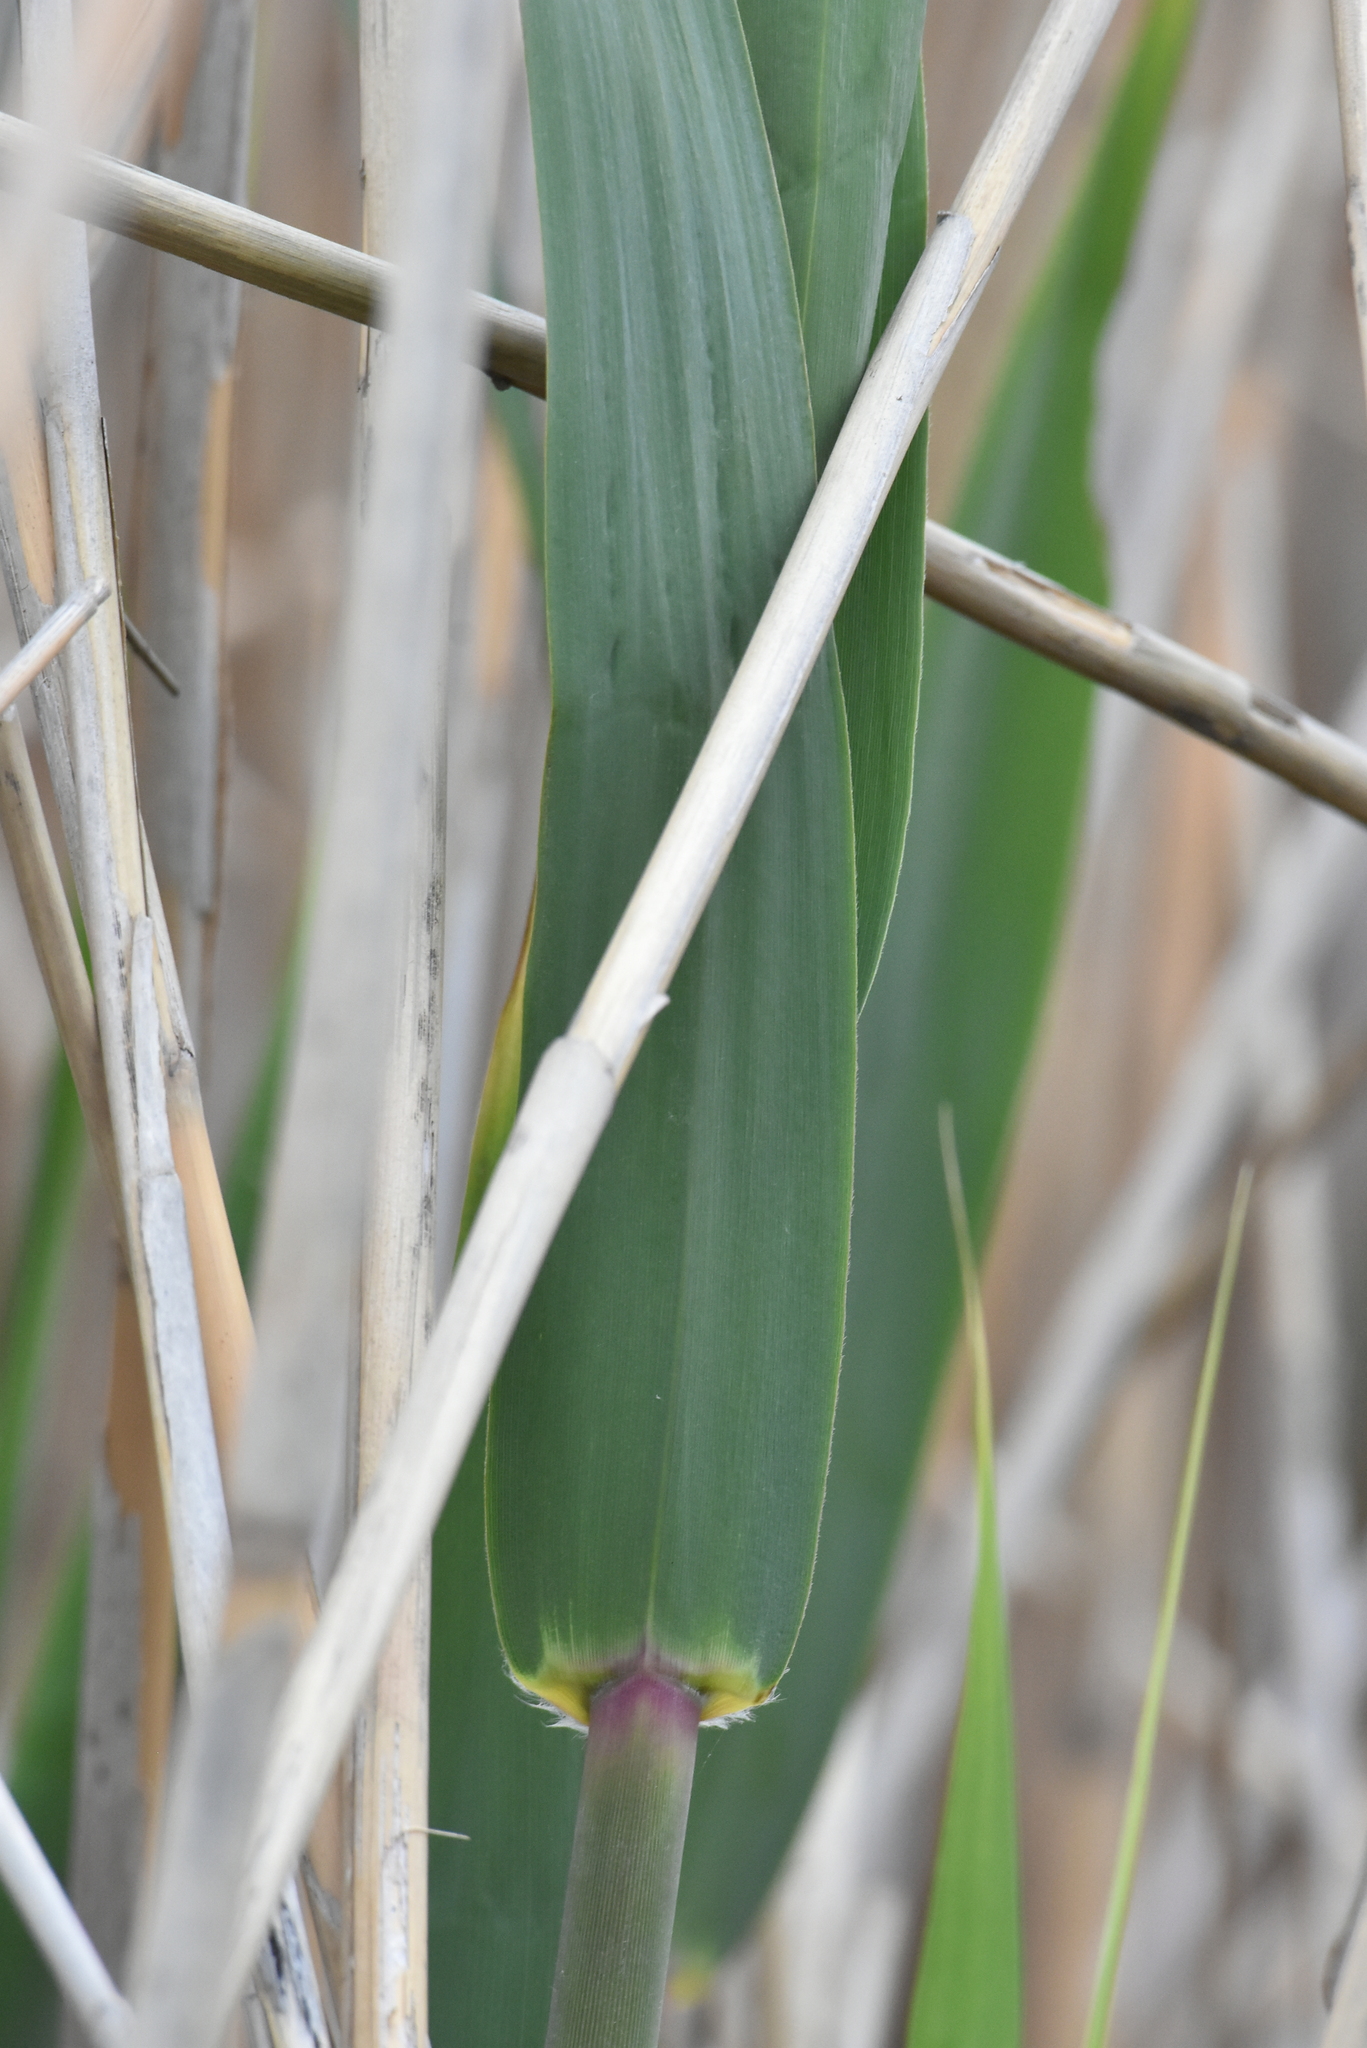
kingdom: Plantae
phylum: Tracheophyta
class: Liliopsida
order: Poales
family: Poaceae
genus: Phragmites
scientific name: Phragmites australis
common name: Common reed
